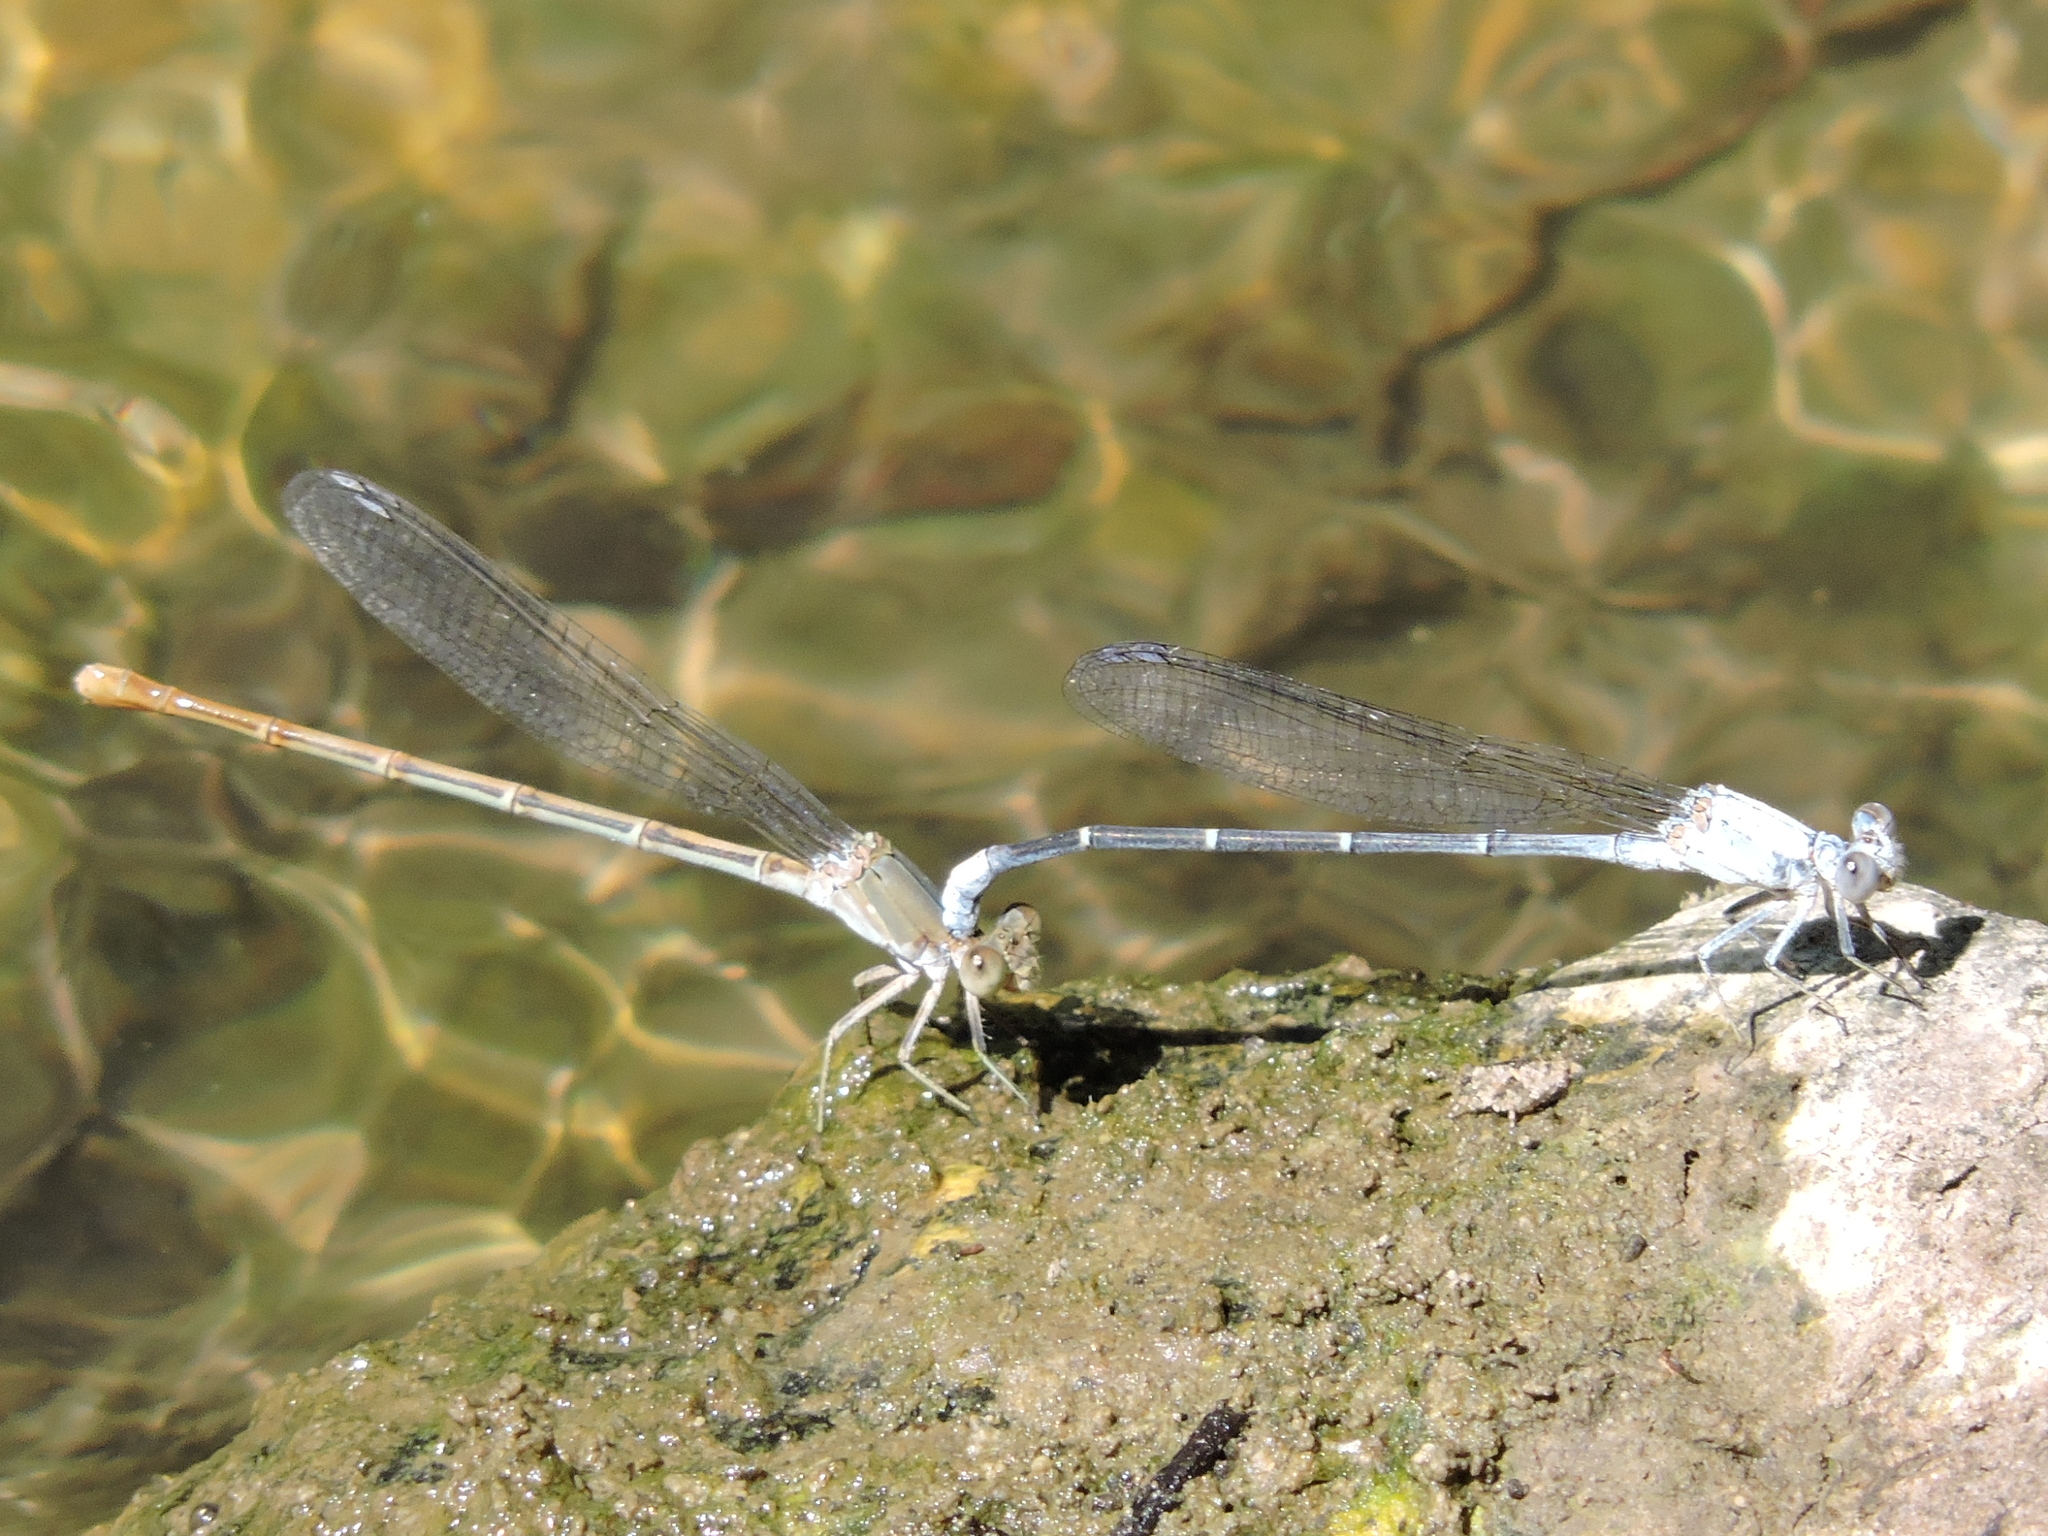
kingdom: Animalia
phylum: Arthropoda
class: Insecta
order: Odonata
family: Coenagrionidae
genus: Argia
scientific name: Argia moesta
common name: Powdered dancer
